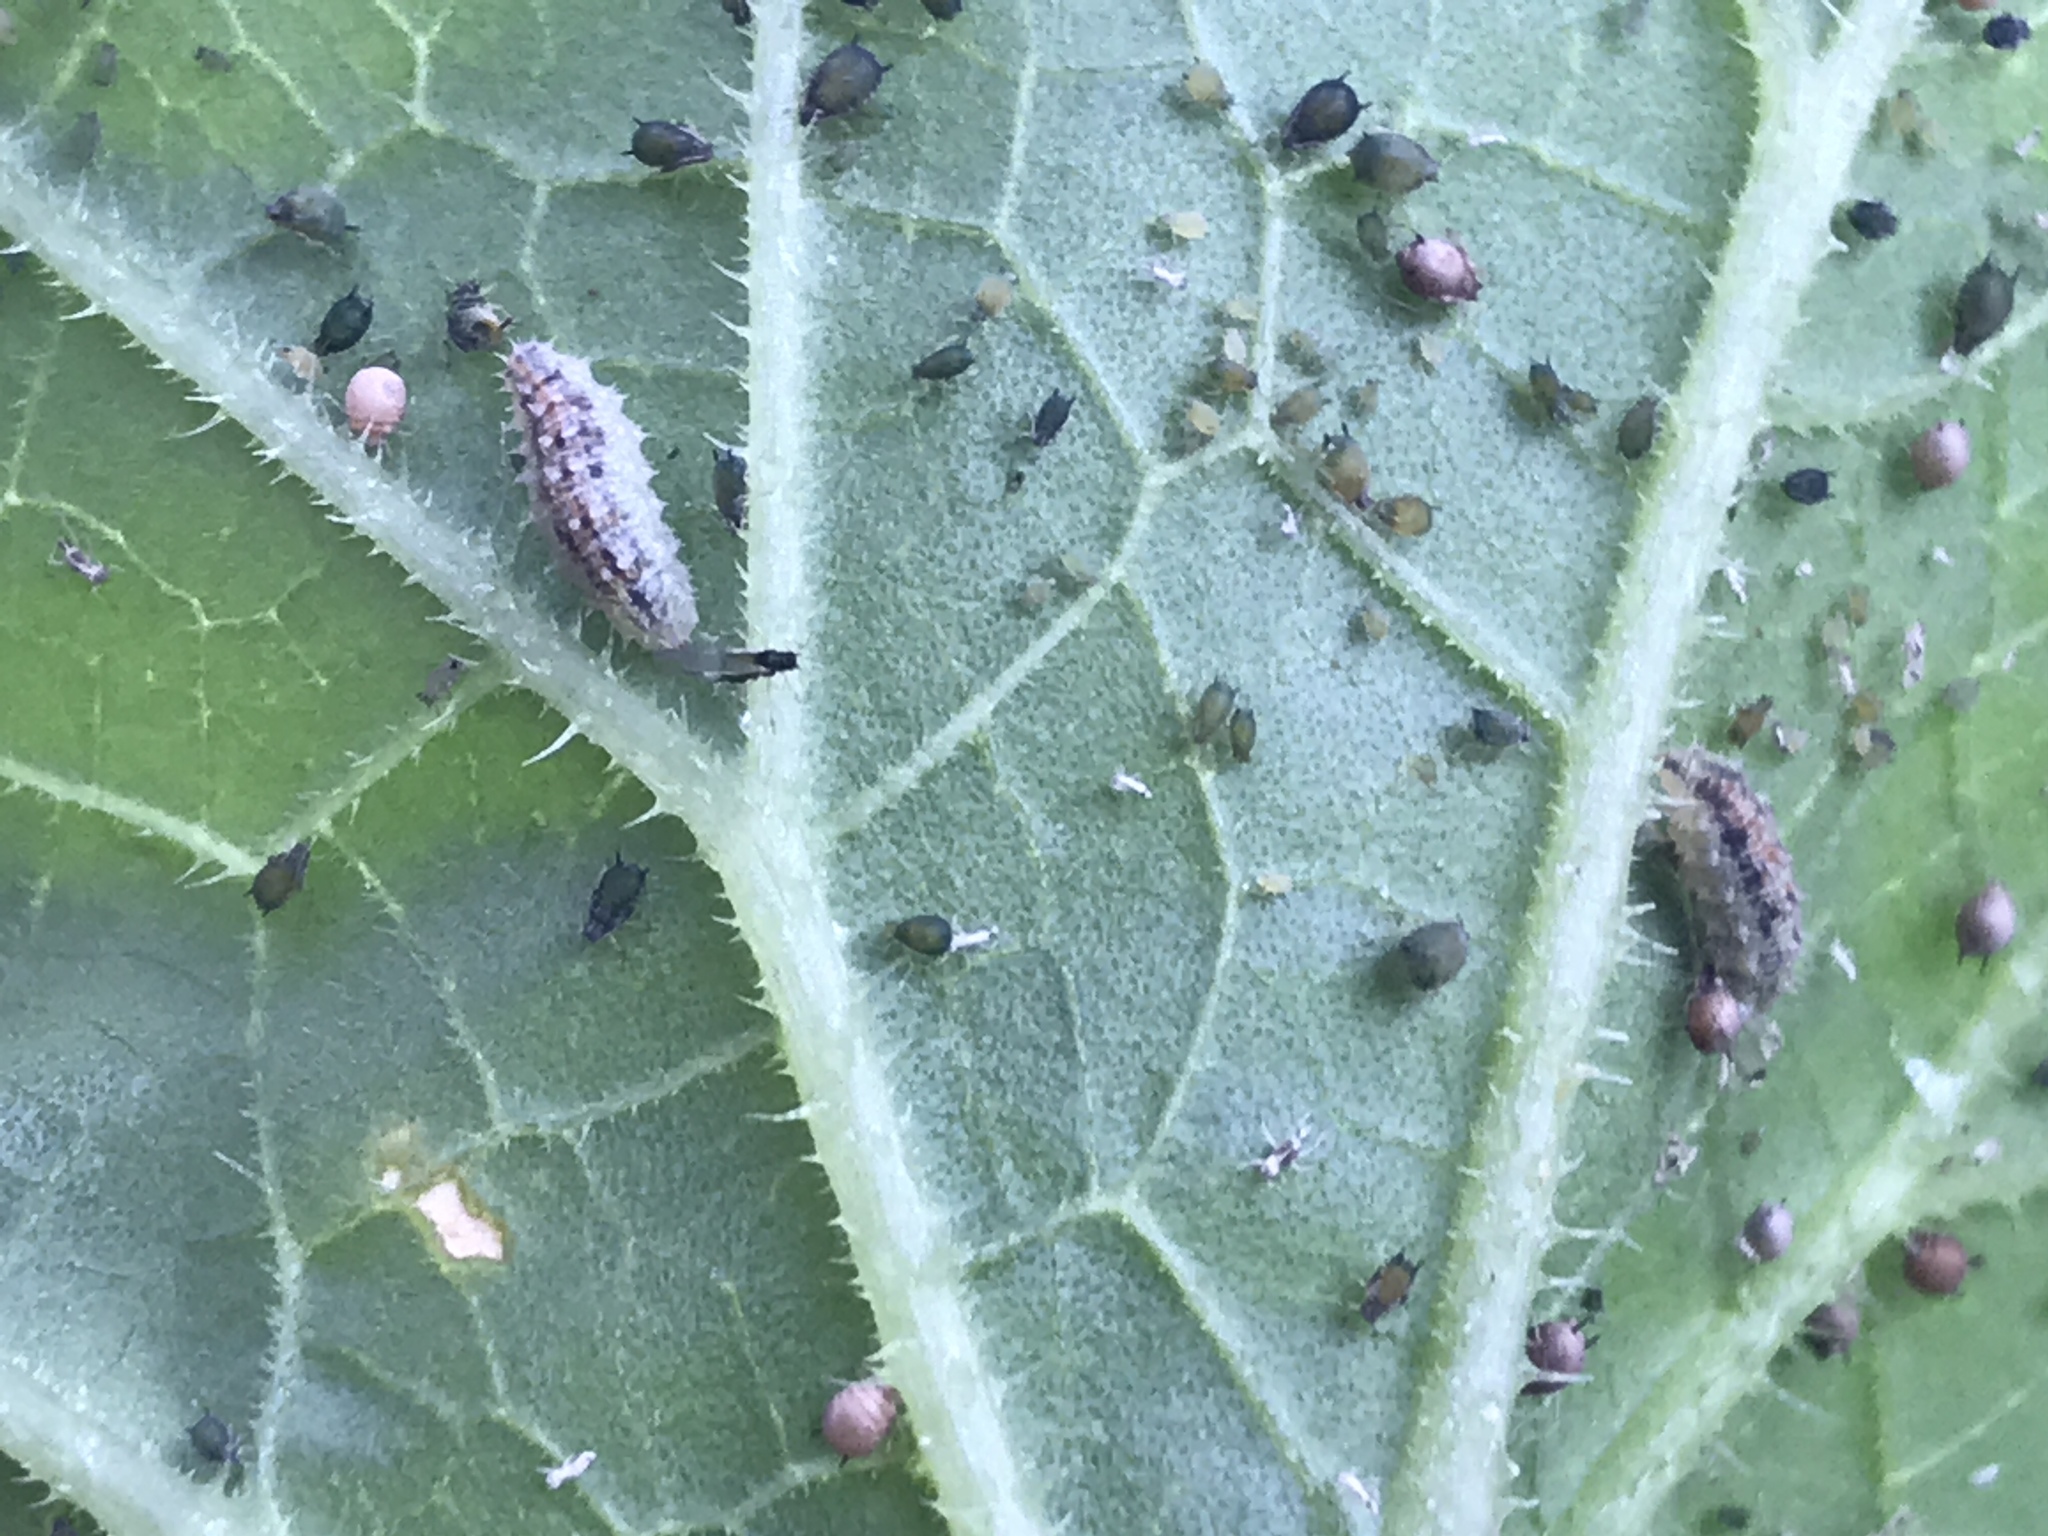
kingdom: Animalia
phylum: Arthropoda
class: Insecta
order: Diptera
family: Syrphidae
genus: Dioprosopa
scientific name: Dioprosopa clavatus
